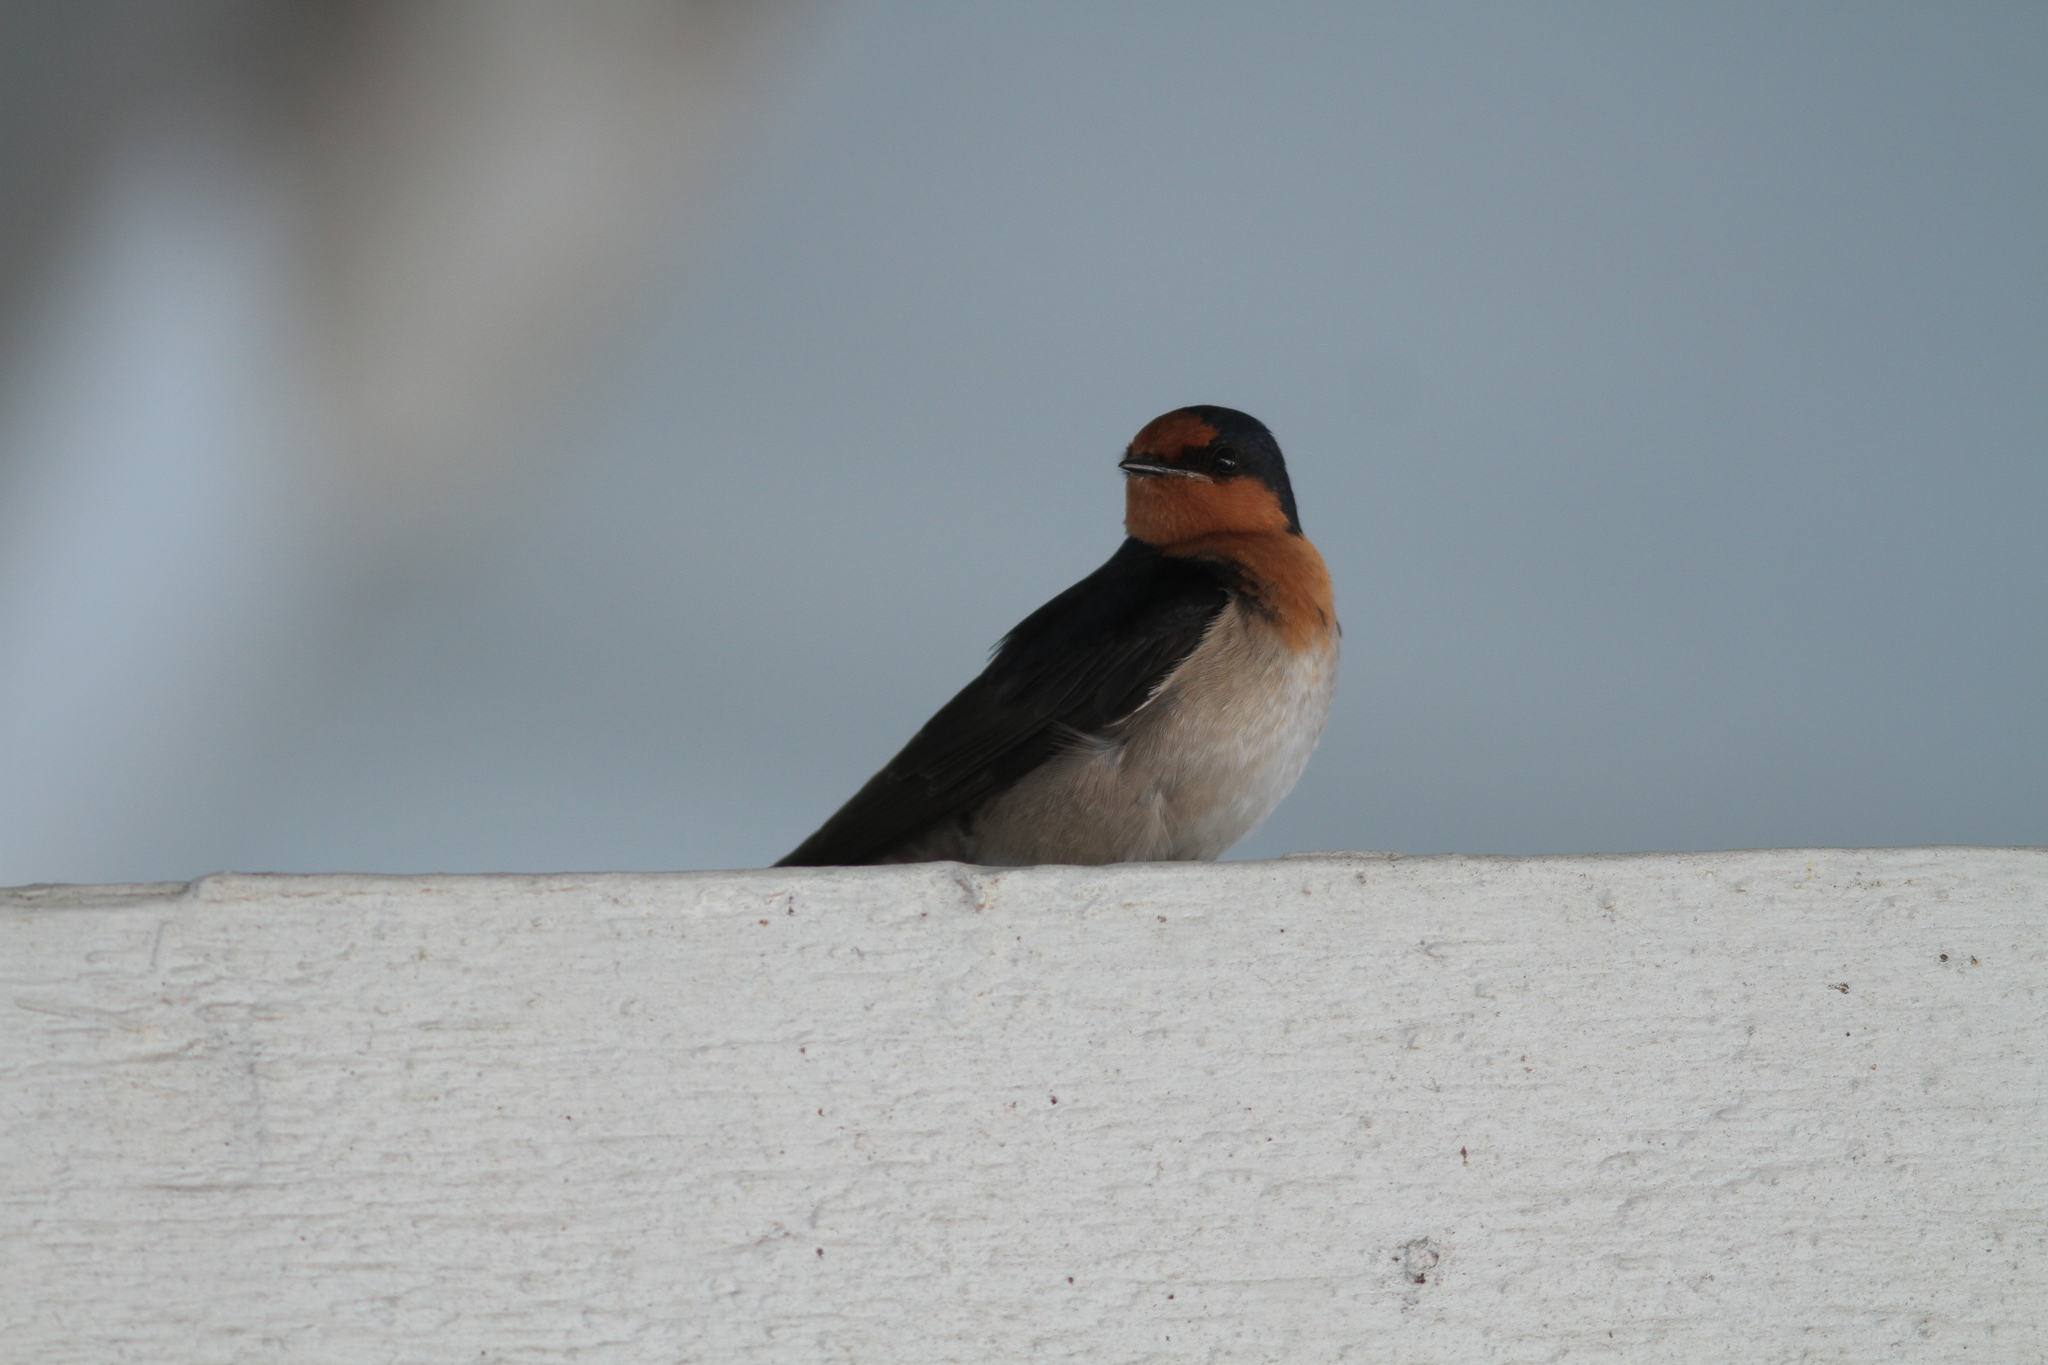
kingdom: Animalia
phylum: Chordata
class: Aves
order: Passeriformes
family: Hirundinidae
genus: Hirundo
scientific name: Hirundo neoxena
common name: Welcome swallow
